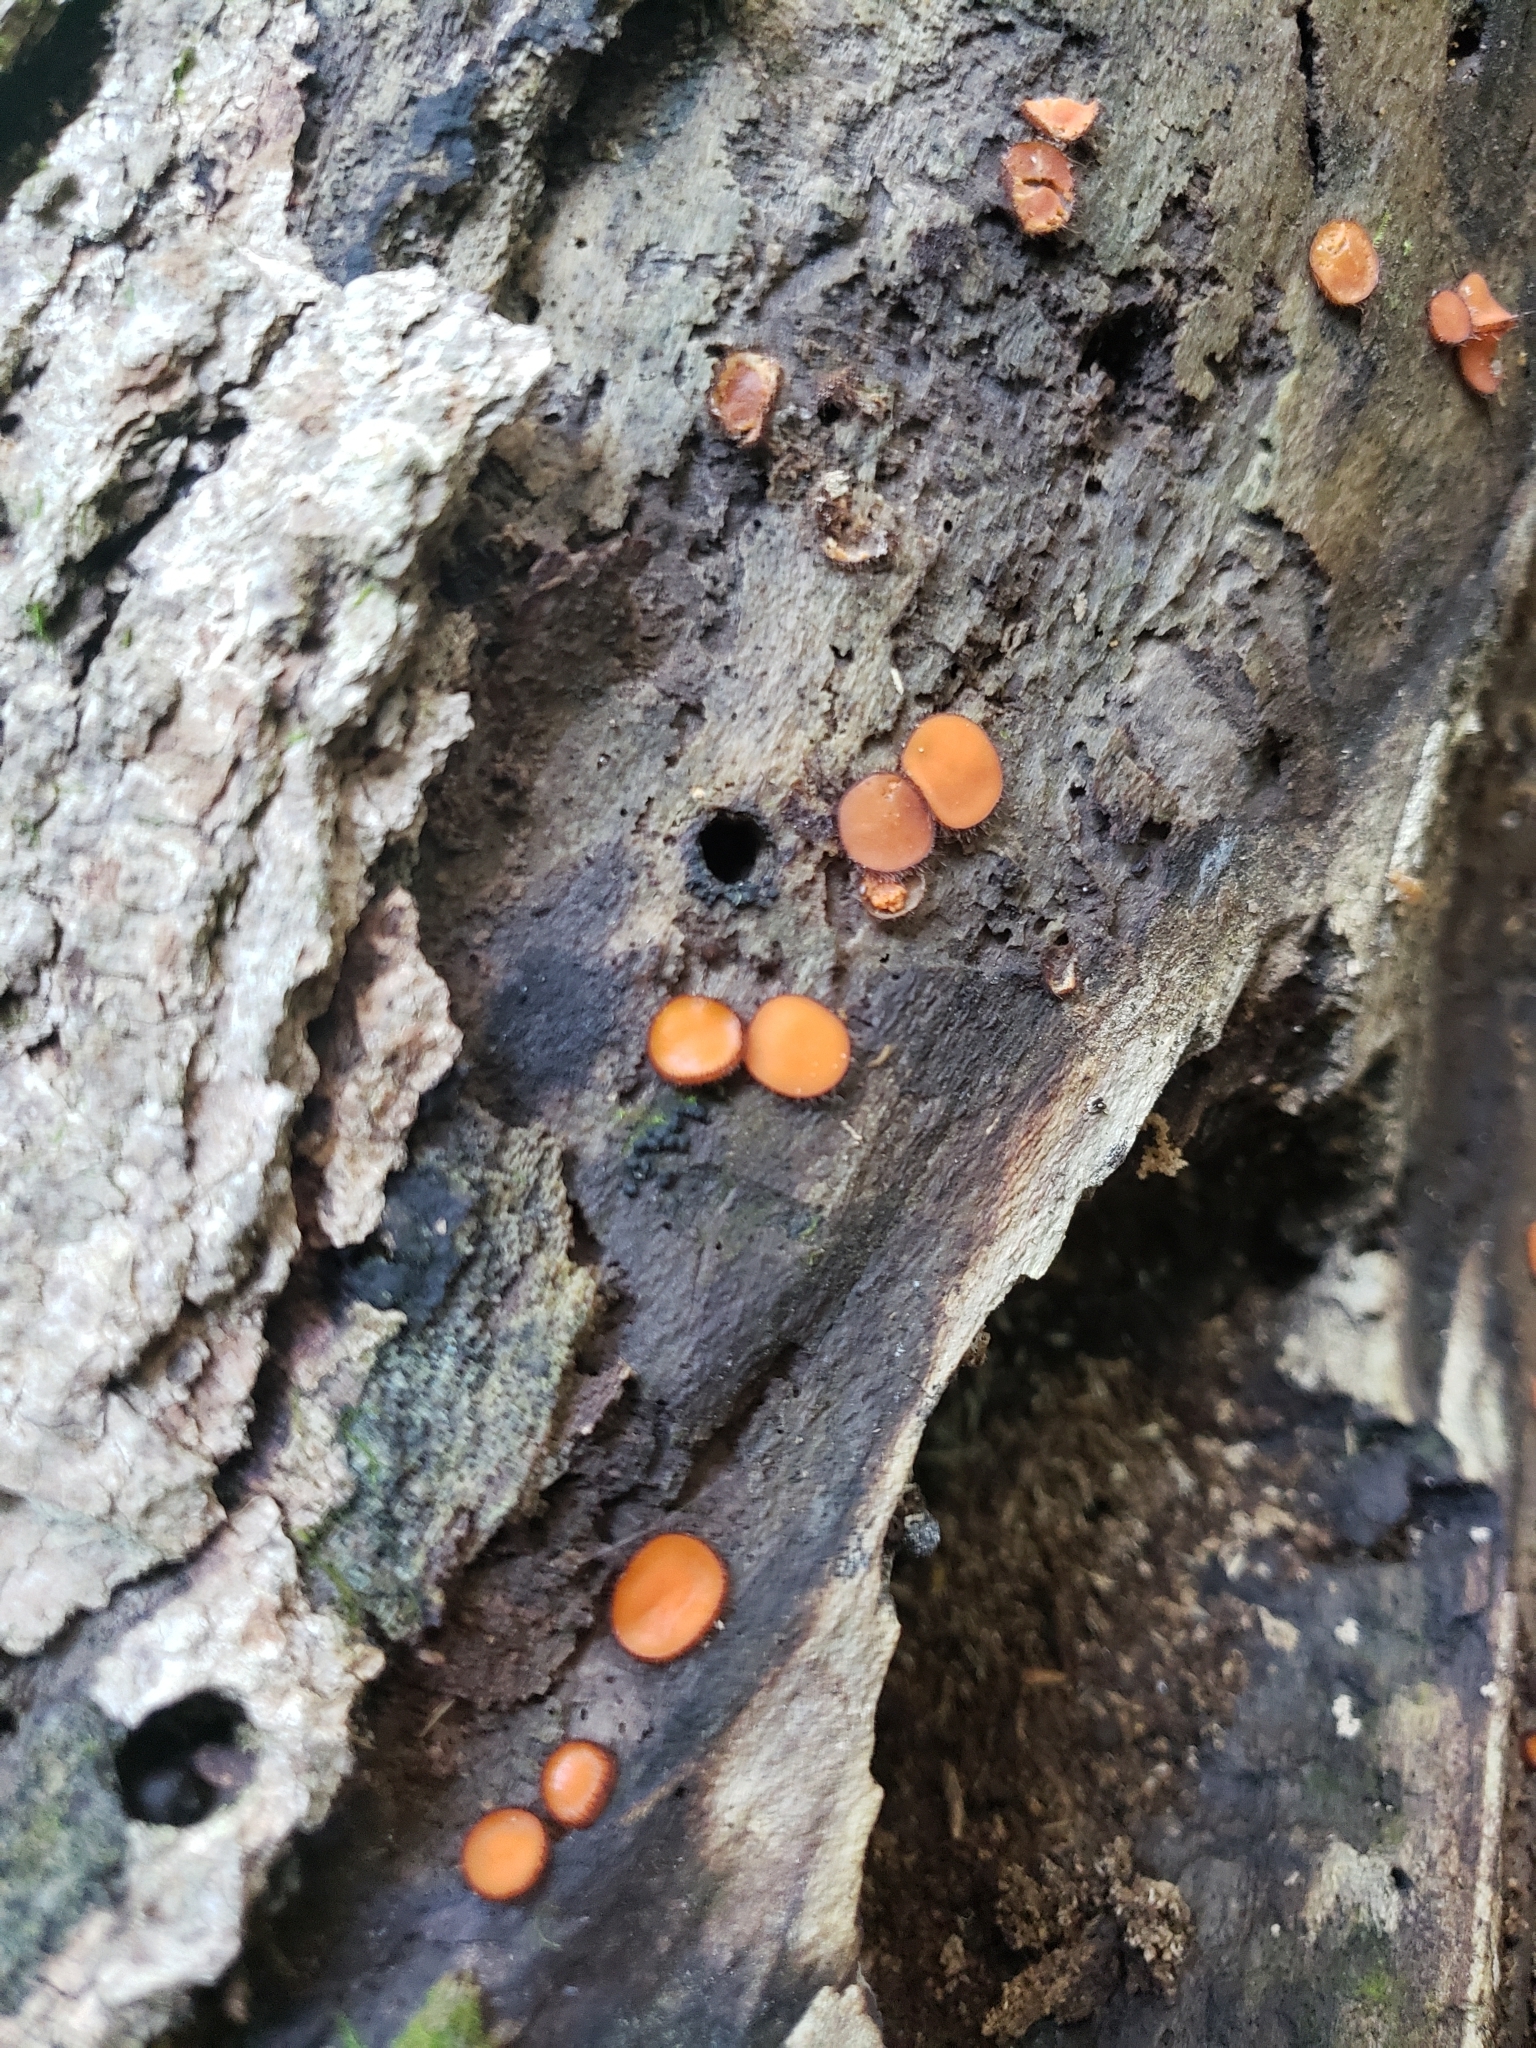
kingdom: Fungi
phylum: Ascomycota
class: Pezizomycetes
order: Pezizales
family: Pyronemataceae
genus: Scutellinia
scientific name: Scutellinia
